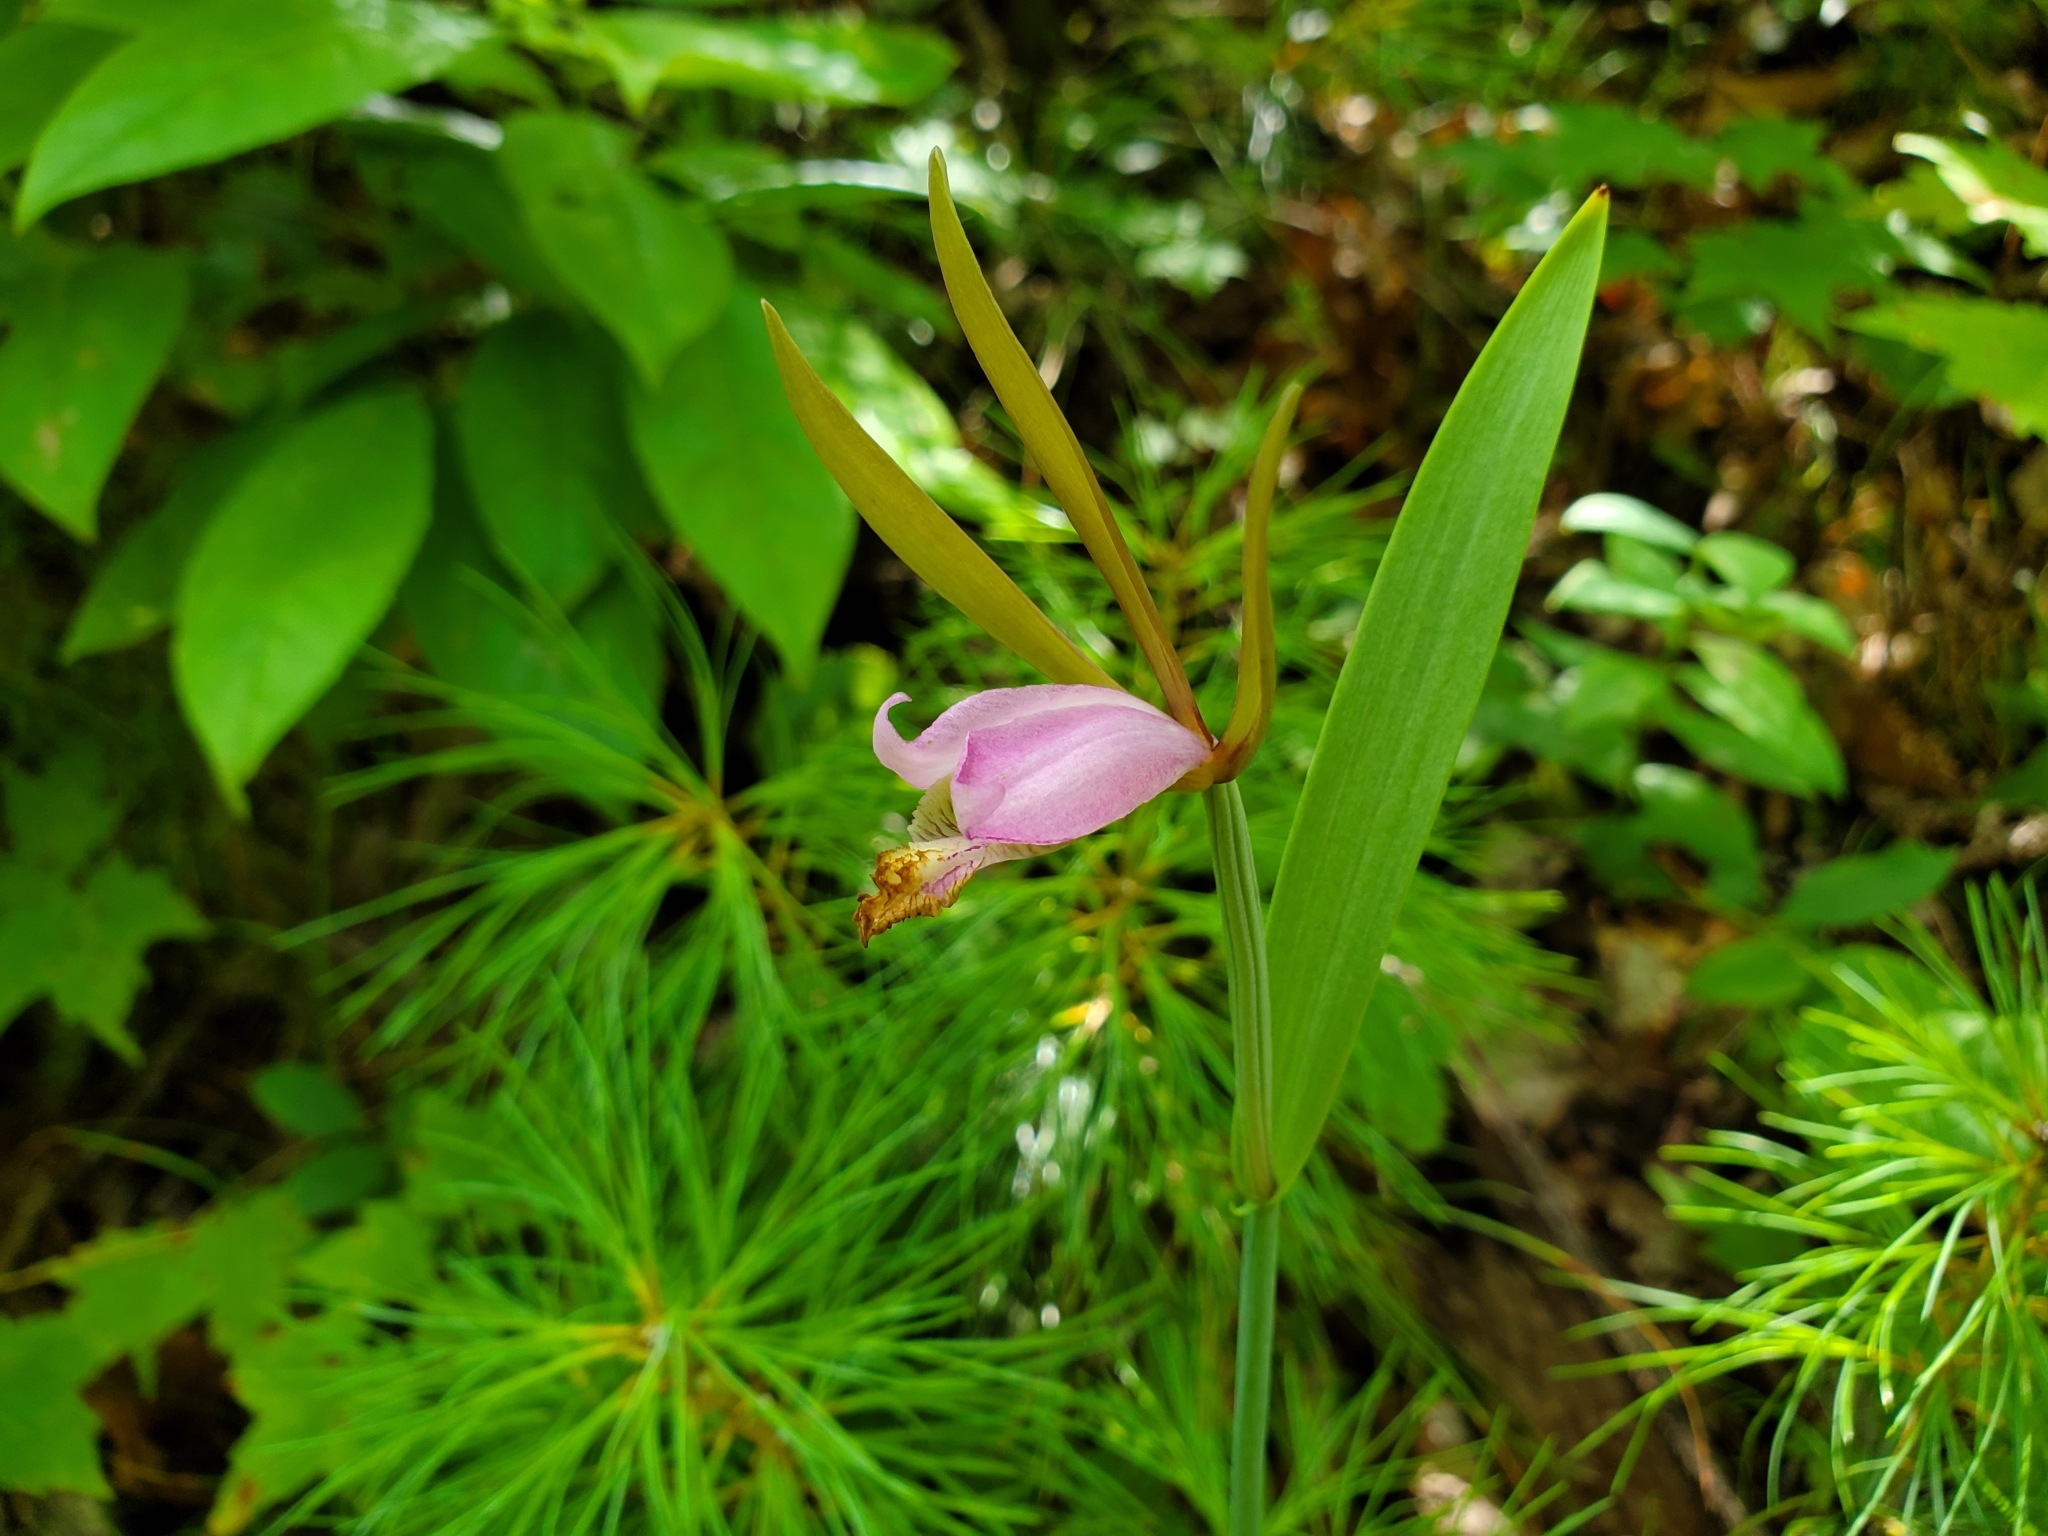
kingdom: Plantae
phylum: Tracheophyta
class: Liliopsida
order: Asparagales
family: Orchidaceae
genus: Cleistesiopsis
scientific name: Cleistesiopsis bifaria
